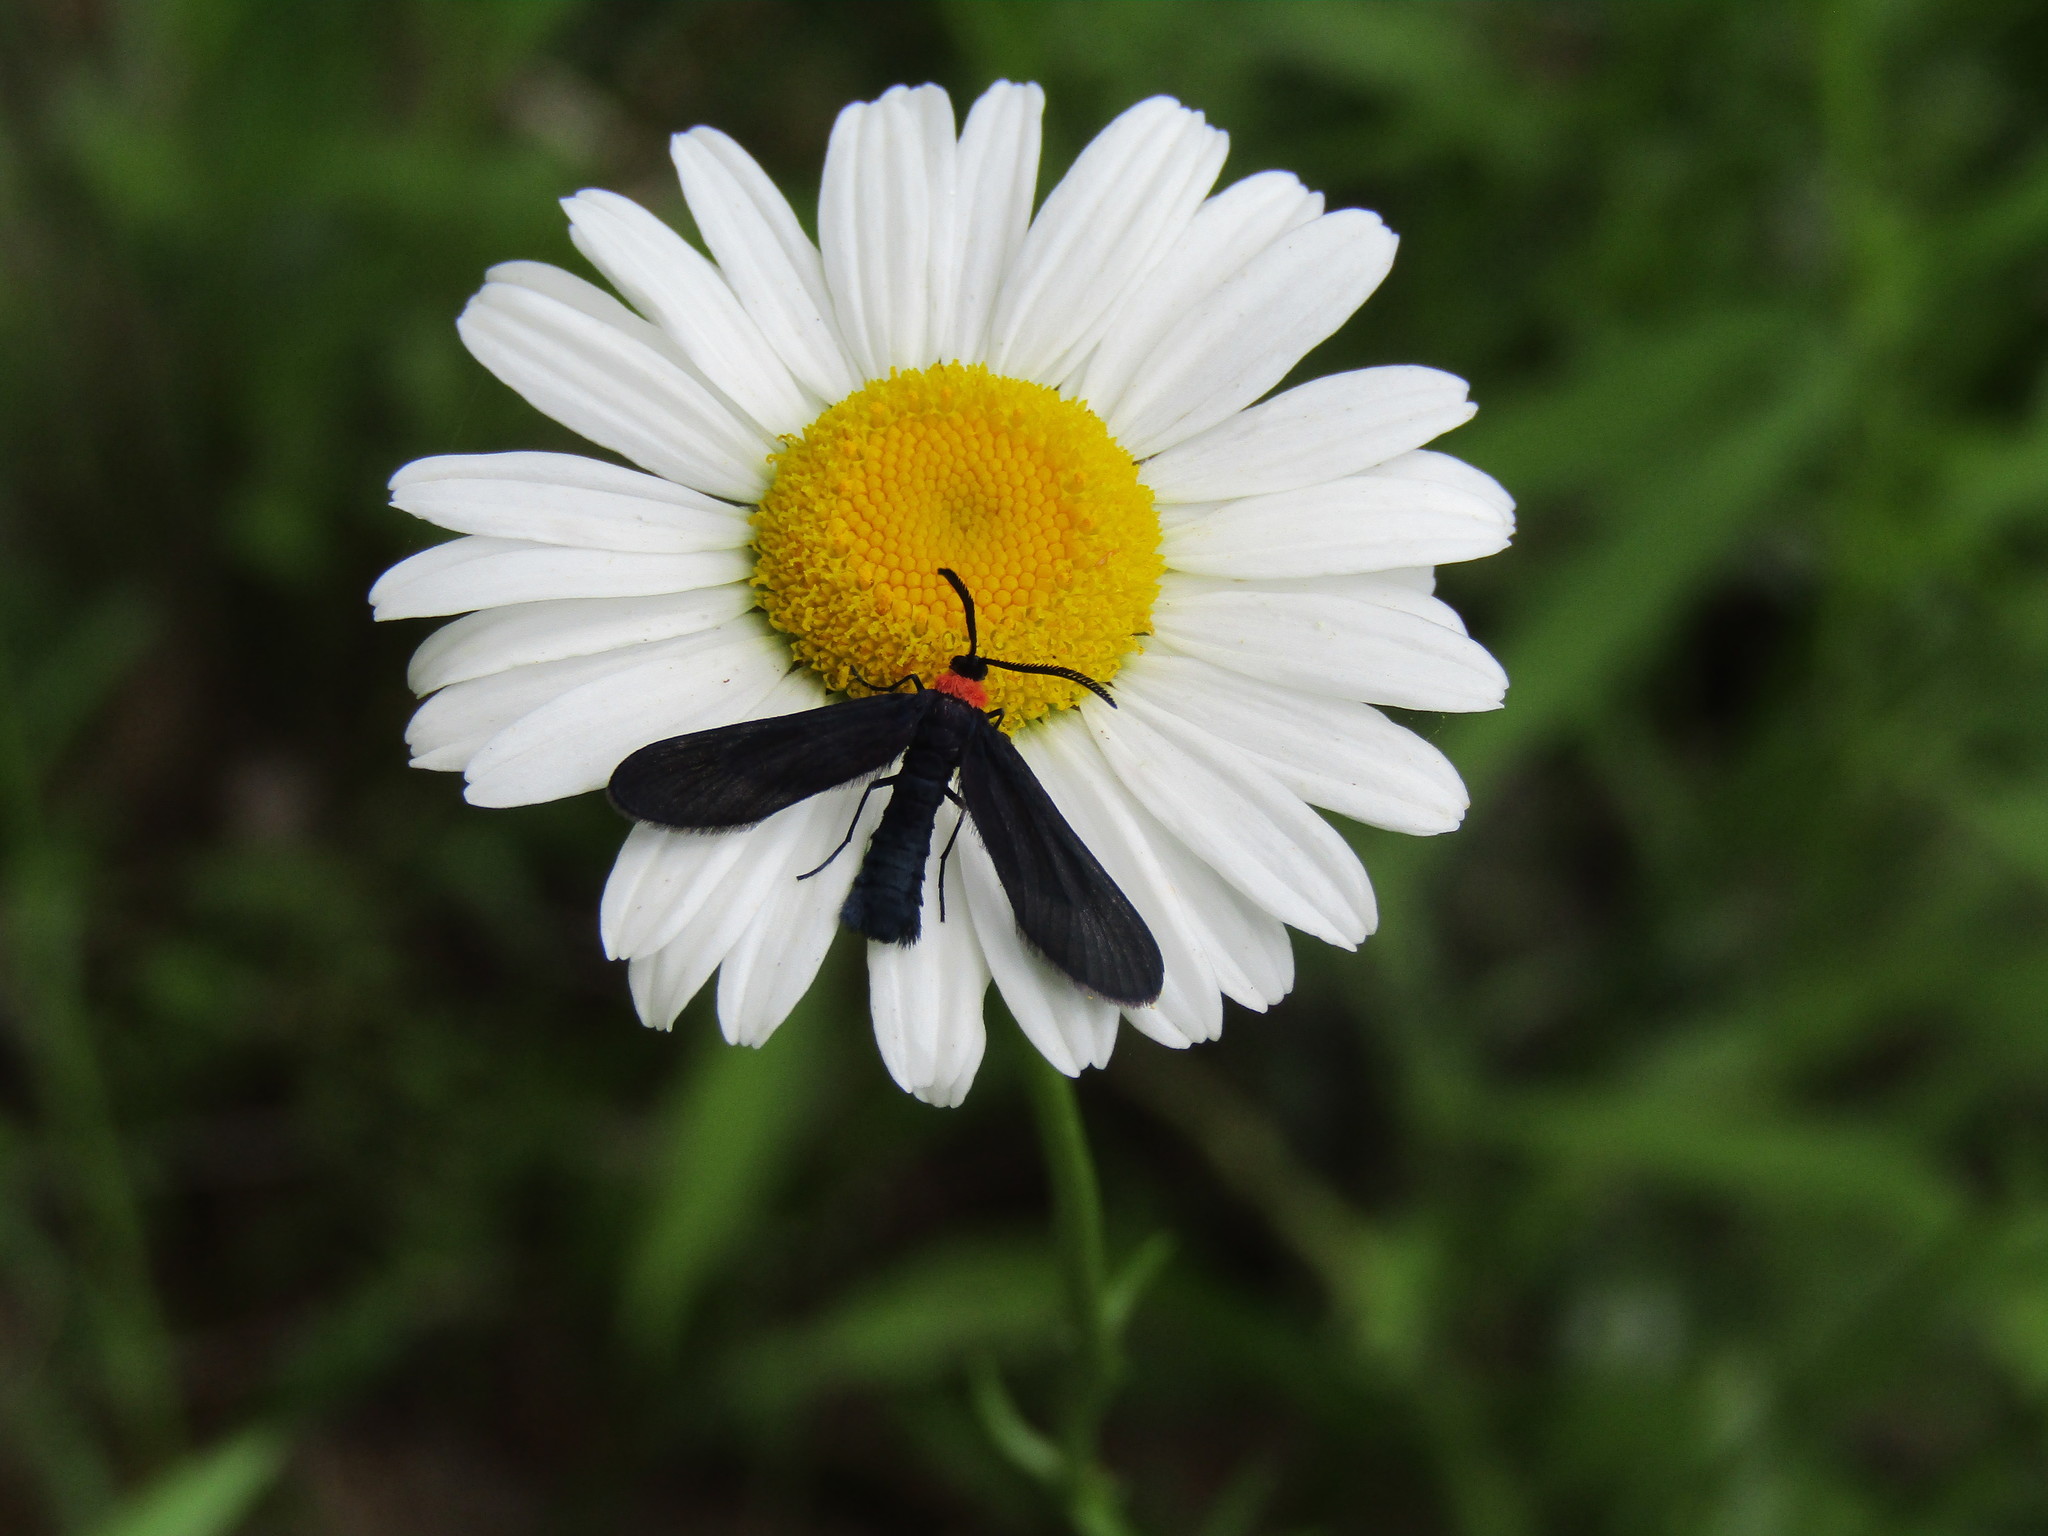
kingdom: Animalia
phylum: Arthropoda
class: Insecta
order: Lepidoptera
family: Zygaenidae
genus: Harrisina
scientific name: Harrisina americana
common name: Grapeleaf skeletonizer moth
